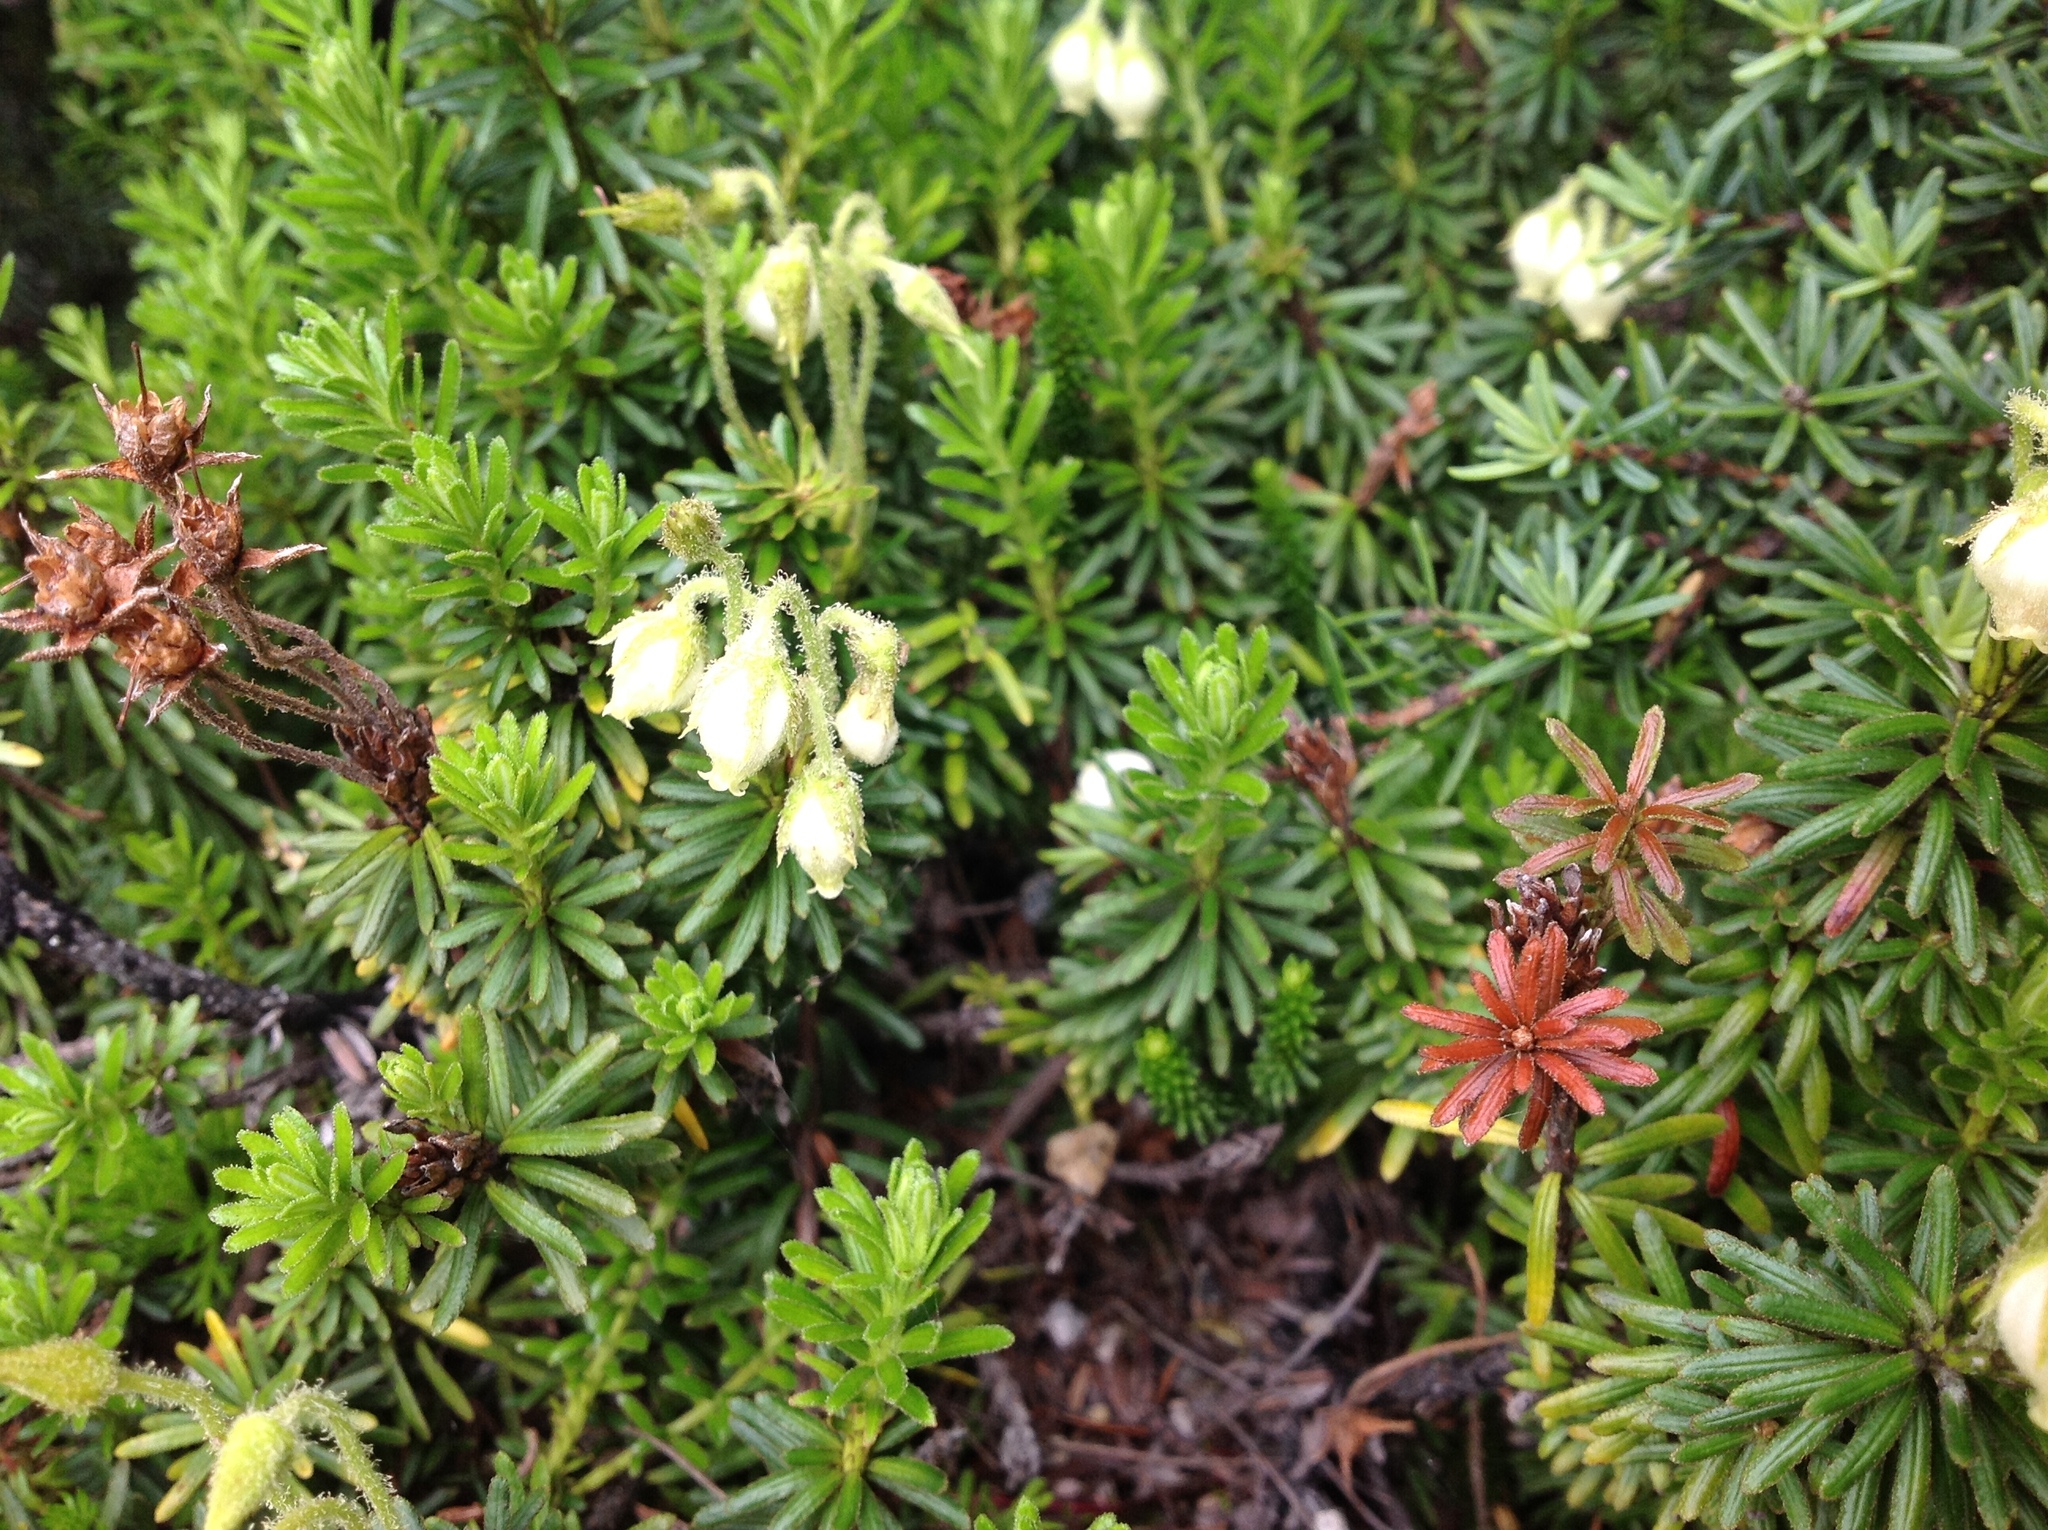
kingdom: Plantae
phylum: Tracheophyta
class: Magnoliopsida
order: Ericales
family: Ericaceae
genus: Phyllodoce
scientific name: Phyllodoce glanduliflora
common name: Cream mountain heather
